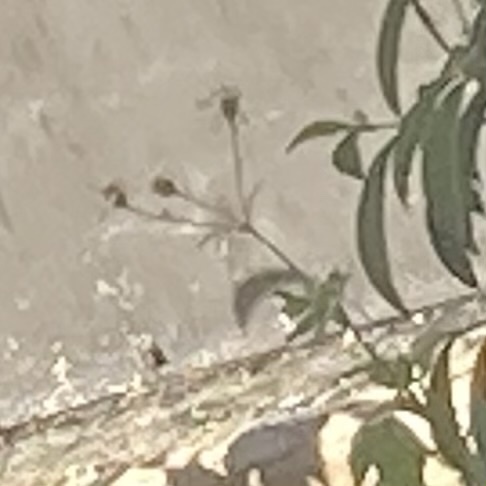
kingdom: Plantae
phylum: Tracheophyta
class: Magnoliopsida
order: Asterales
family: Asteraceae
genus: Bidens
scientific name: Bidens alba
